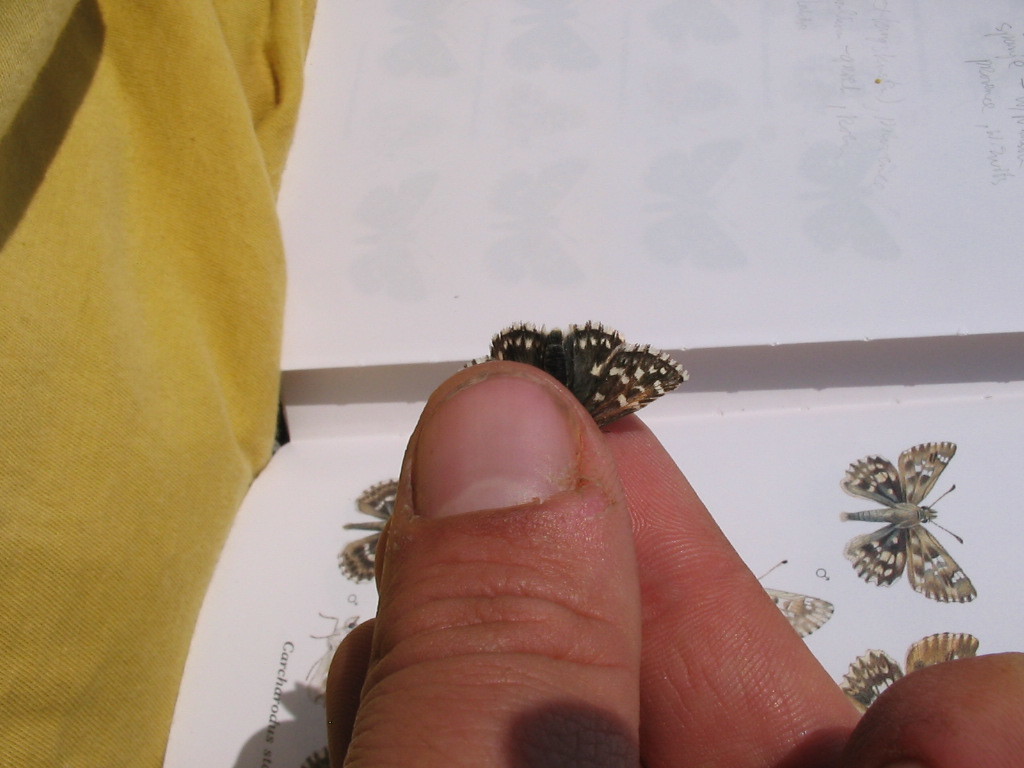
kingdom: Animalia
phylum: Arthropoda
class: Insecta
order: Lepidoptera
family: Hesperiidae
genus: Pyrgus
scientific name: Pyrgus malvae
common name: Grizzled skipper
